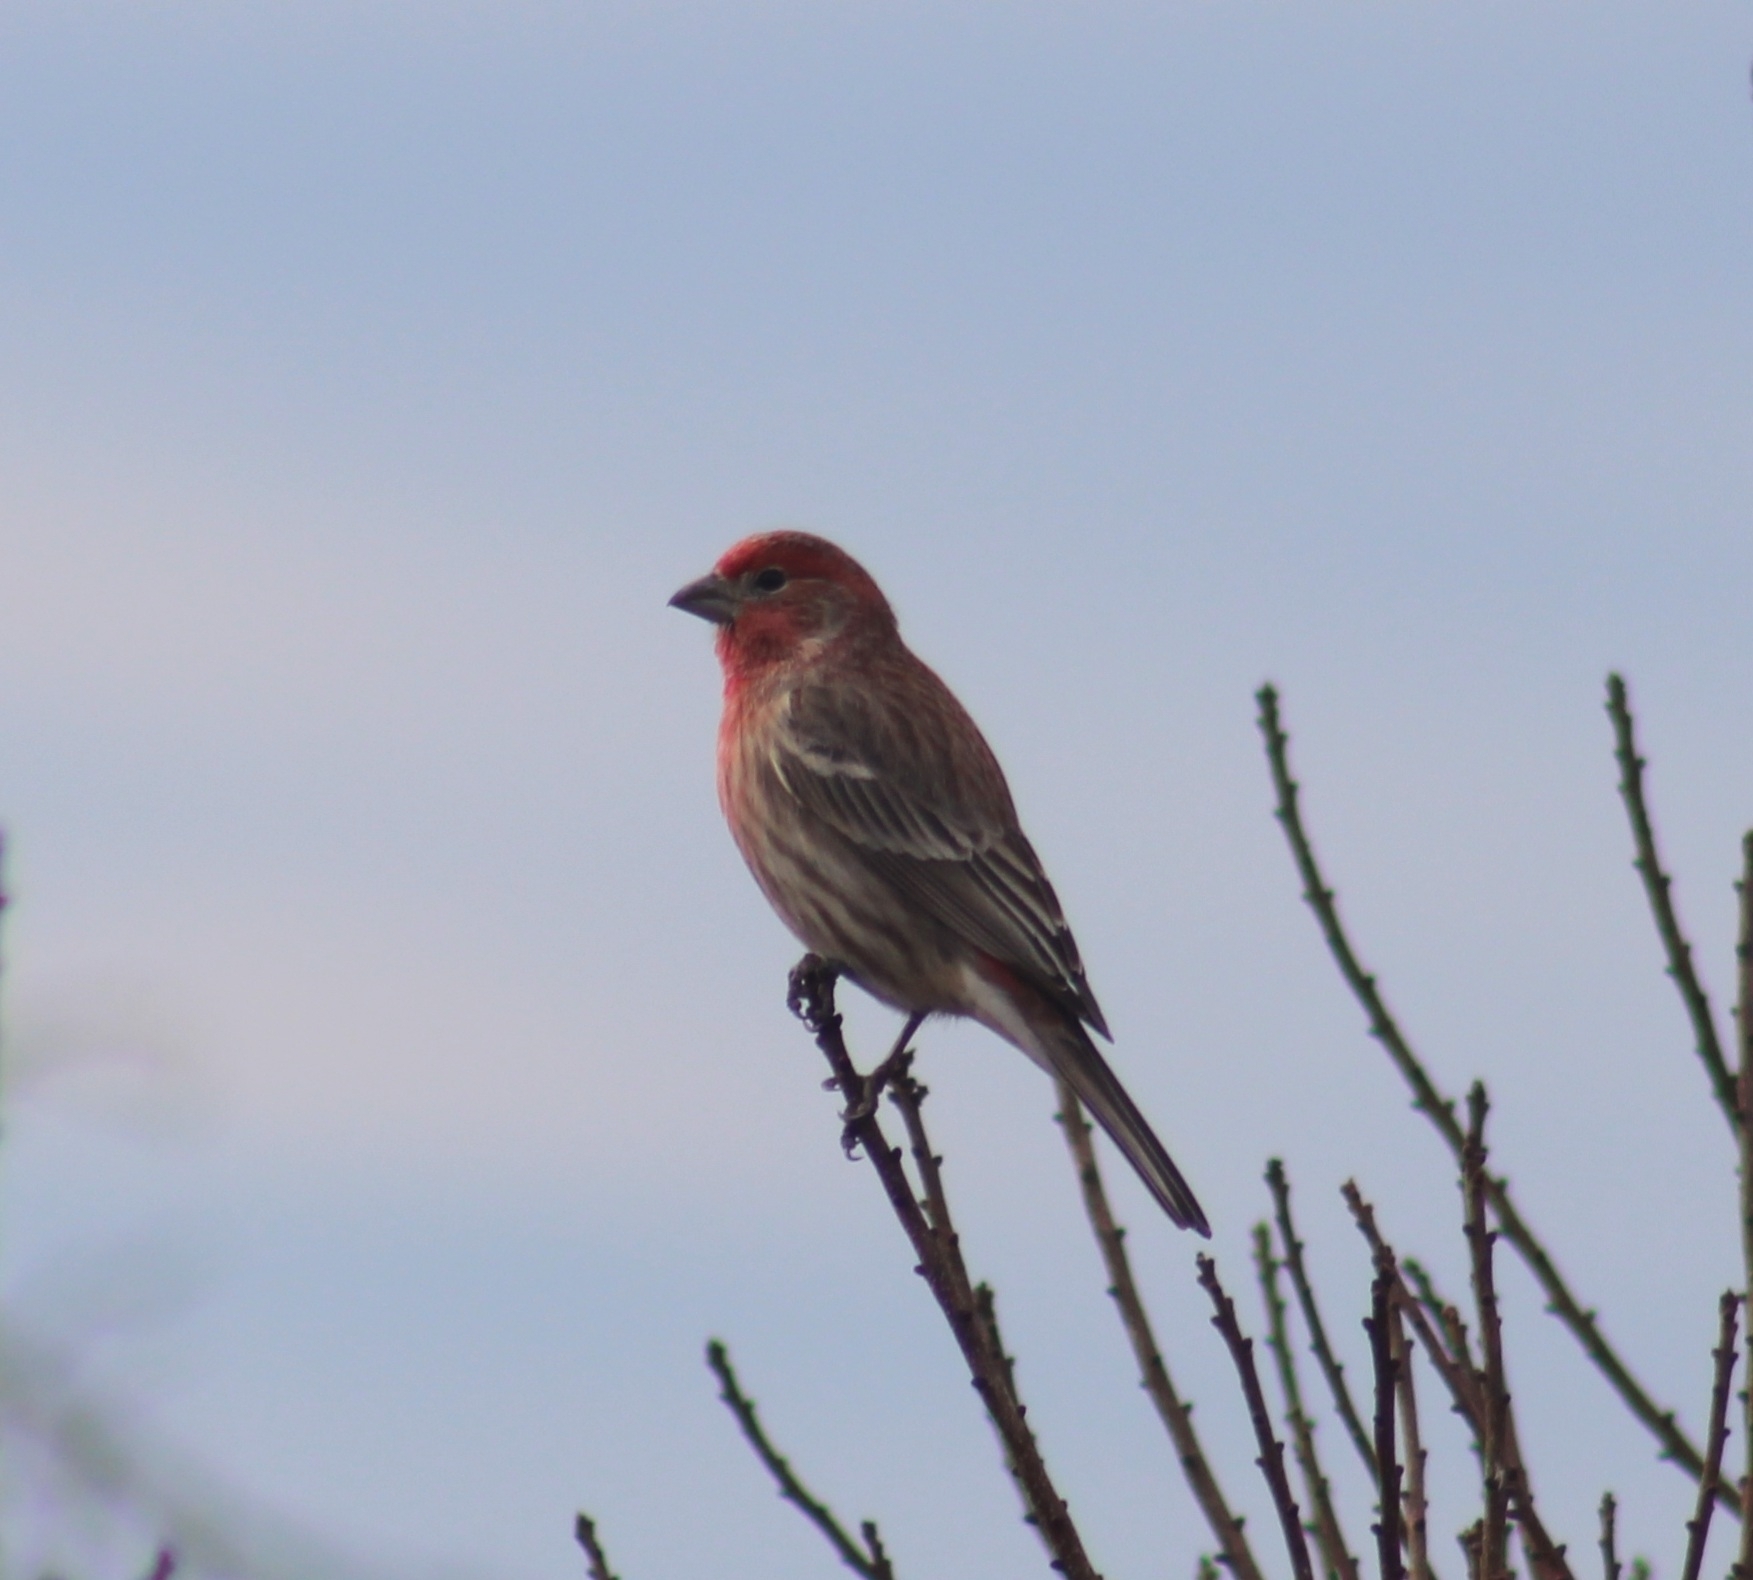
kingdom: Animalia
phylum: Chordata
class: Aves
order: Passeriformes
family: Fringillidae
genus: Haemorhous
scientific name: Haemorhous mexicanus
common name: House finch
